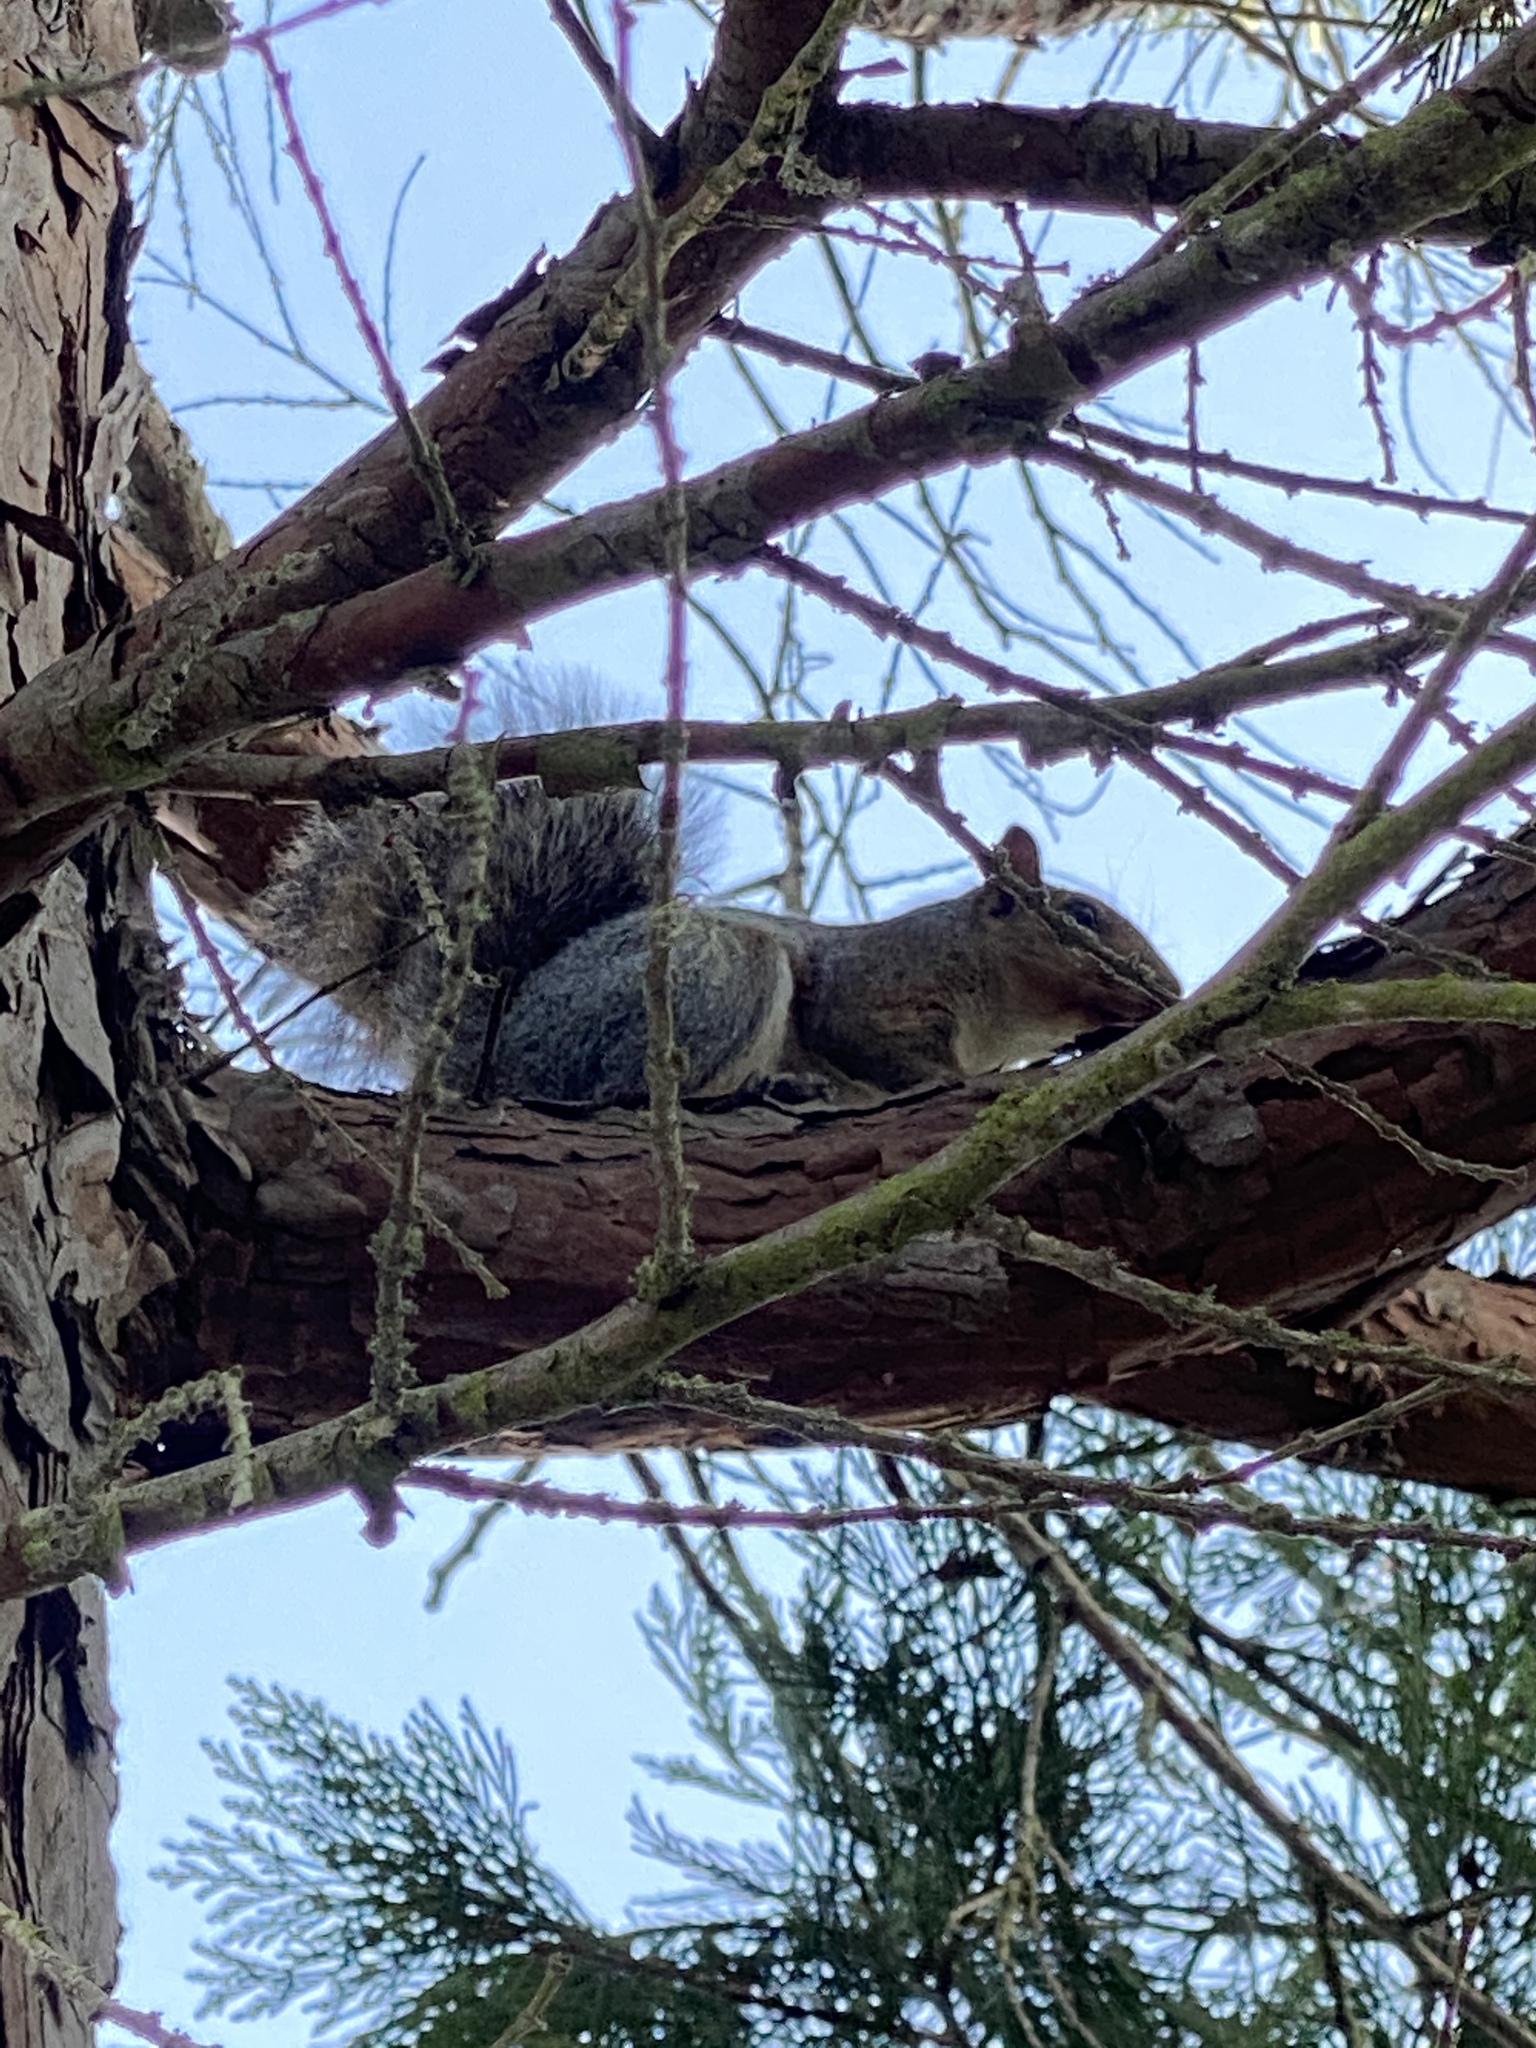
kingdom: Animalia
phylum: Chordata
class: Mammalia
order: Rodentia
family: Sciuridae
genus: Sciurus
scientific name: Sciurus carolinensis
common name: Eastern gray squirrel
